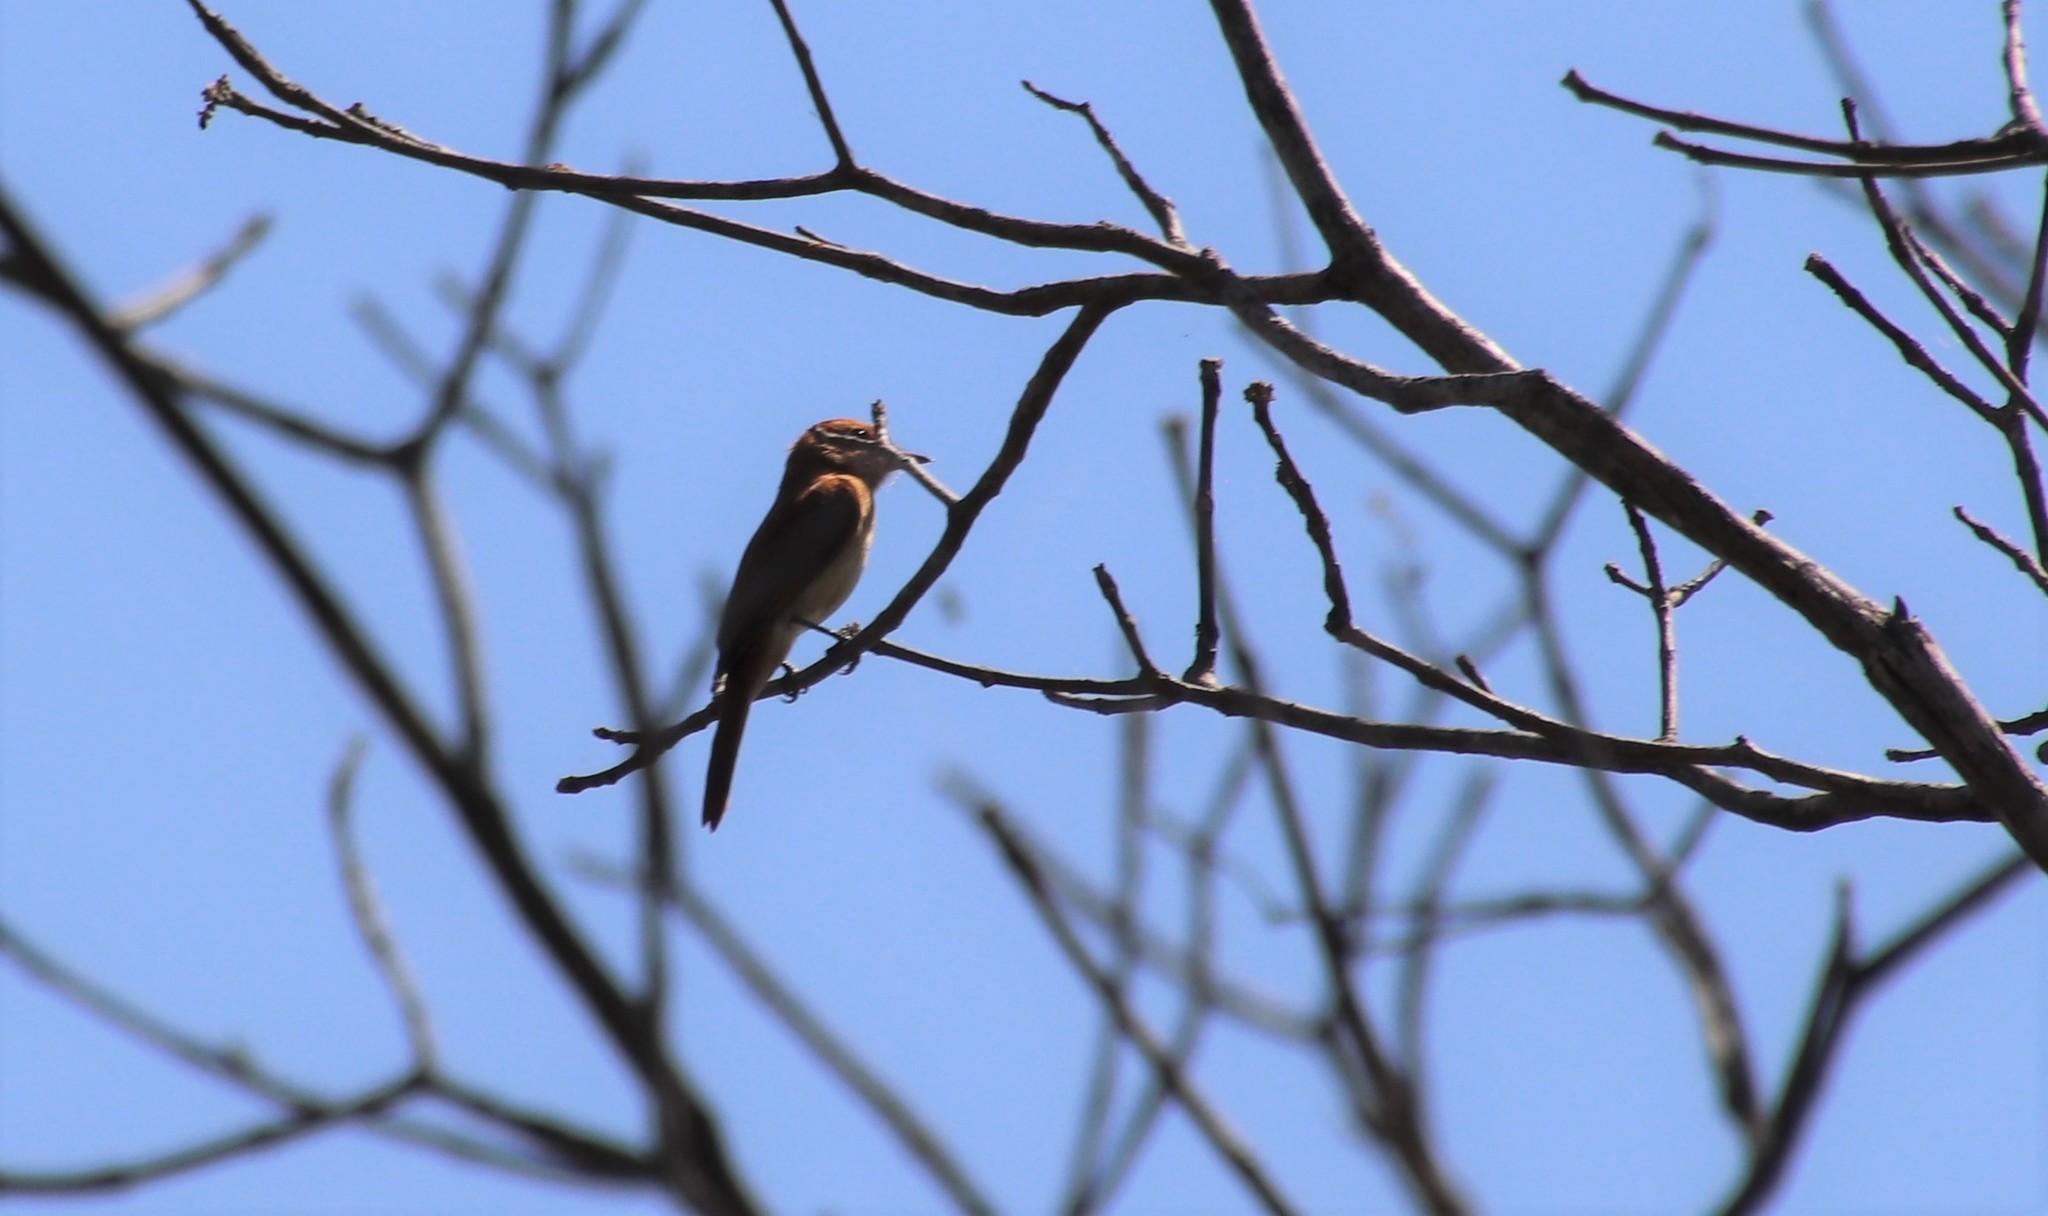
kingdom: Animalia
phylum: Chordata
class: Aves
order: Passeriformes
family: Tyrannidae
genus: Casiornis
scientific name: Casiornis rufus
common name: Rufous casiornis
